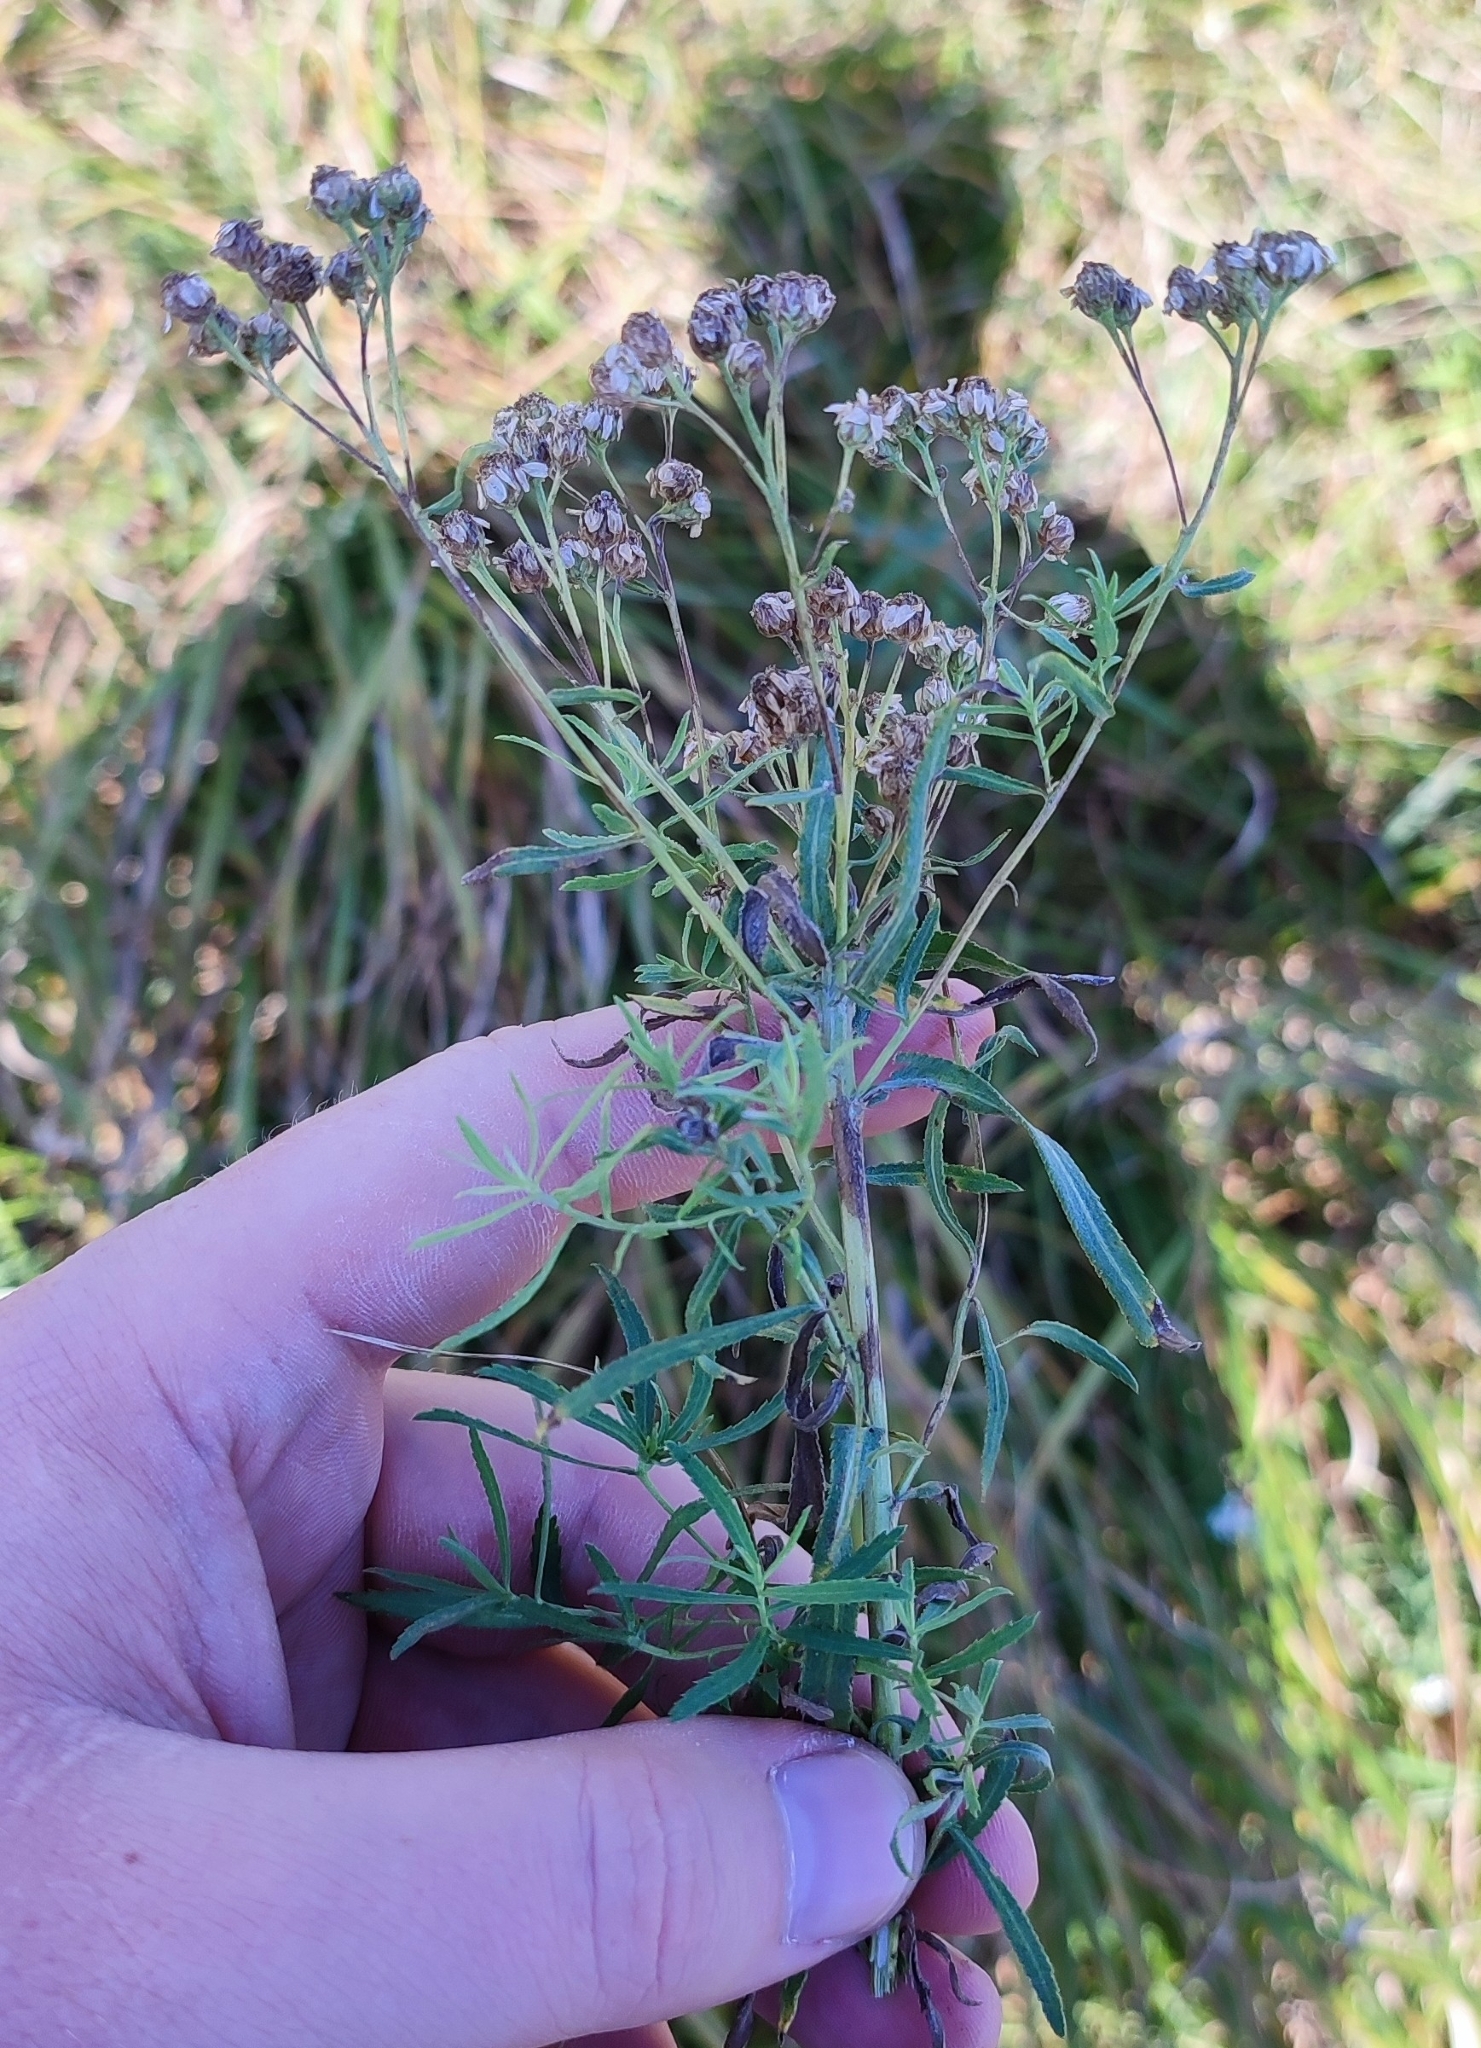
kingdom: Plantae
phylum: Tracheophyta
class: Magnoliopsida
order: Asterales
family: Asteraceae
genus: Achillea
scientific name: Achillea salicifolia
